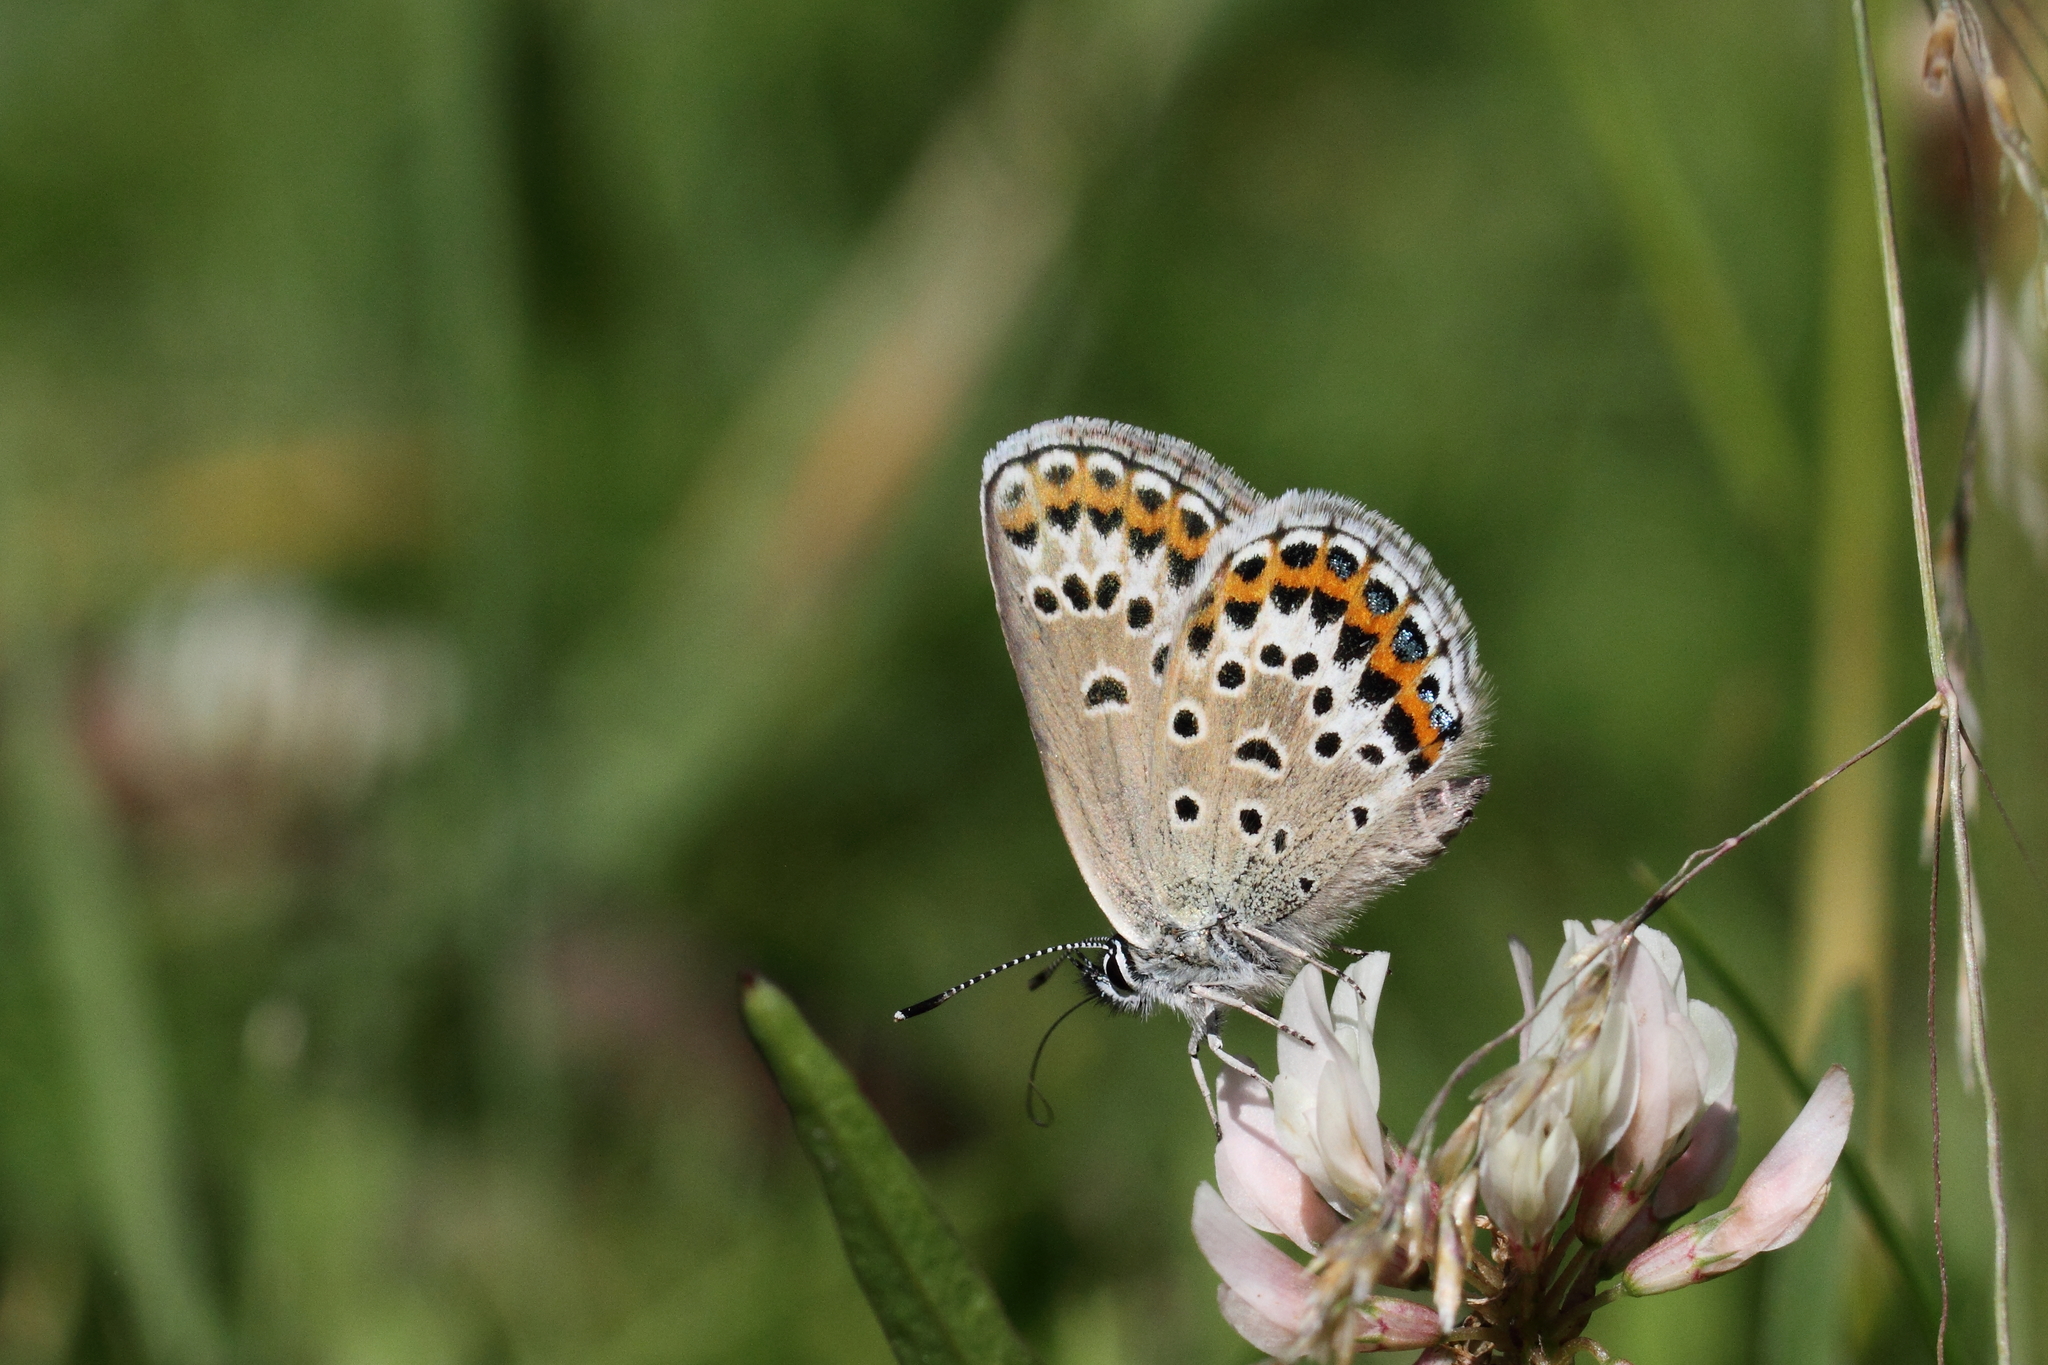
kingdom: Animalia
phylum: Arthropoda
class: Insecta
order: Lepidoptera
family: Lycaenidae
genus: Plebejus
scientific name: Plebejus argus
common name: Silver-studded blue
